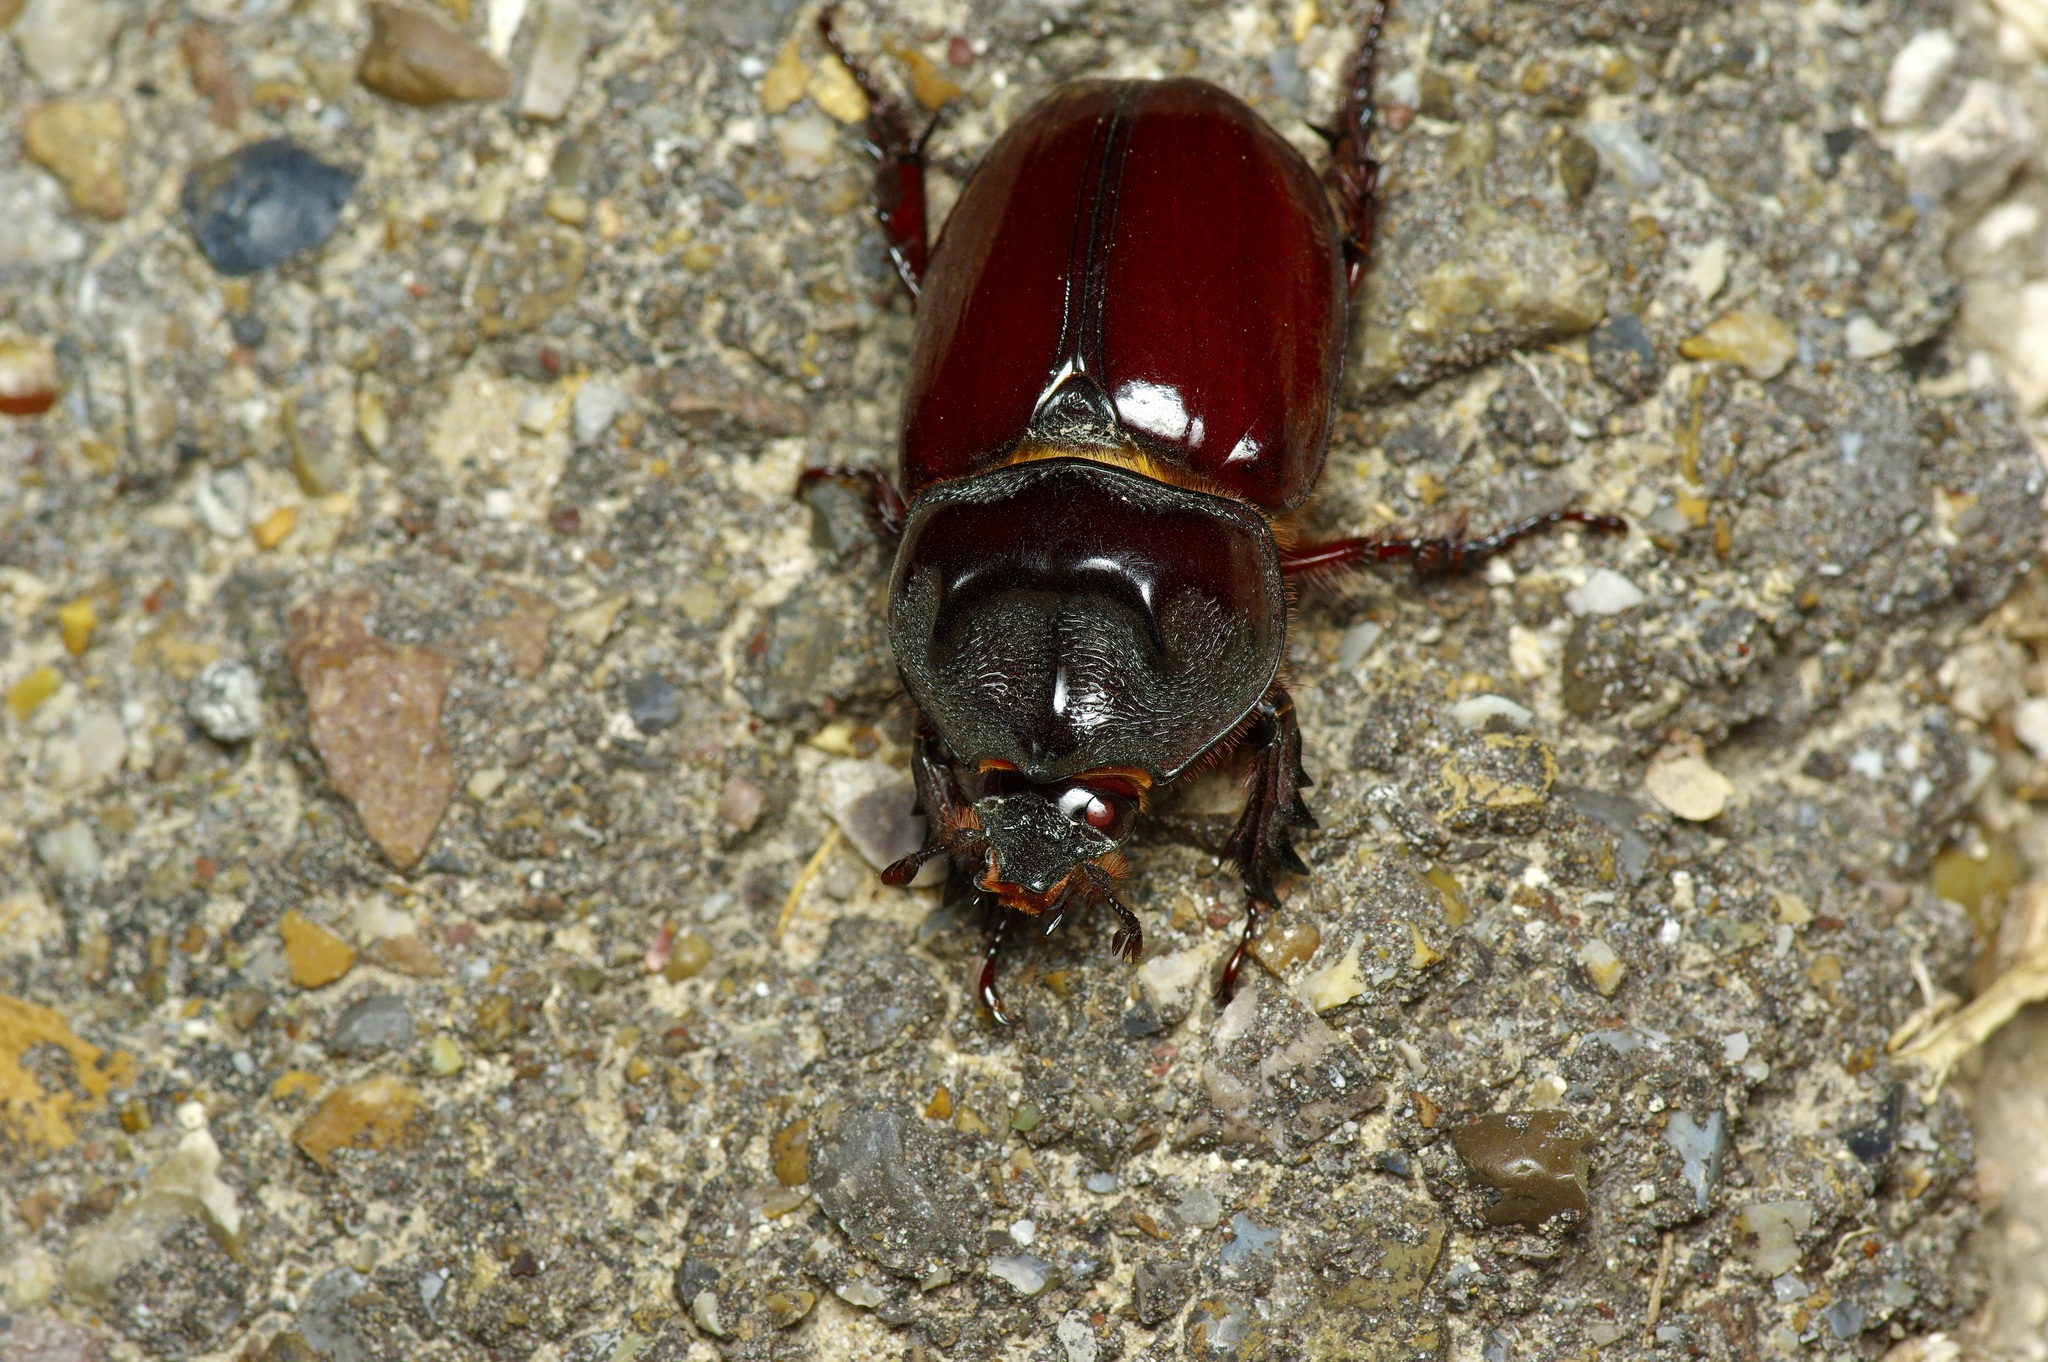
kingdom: Animalia
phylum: Arthropoda
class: Insecta
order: Coleoptera
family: Scarabaeidae
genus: Strategus
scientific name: Strategus aloeus
